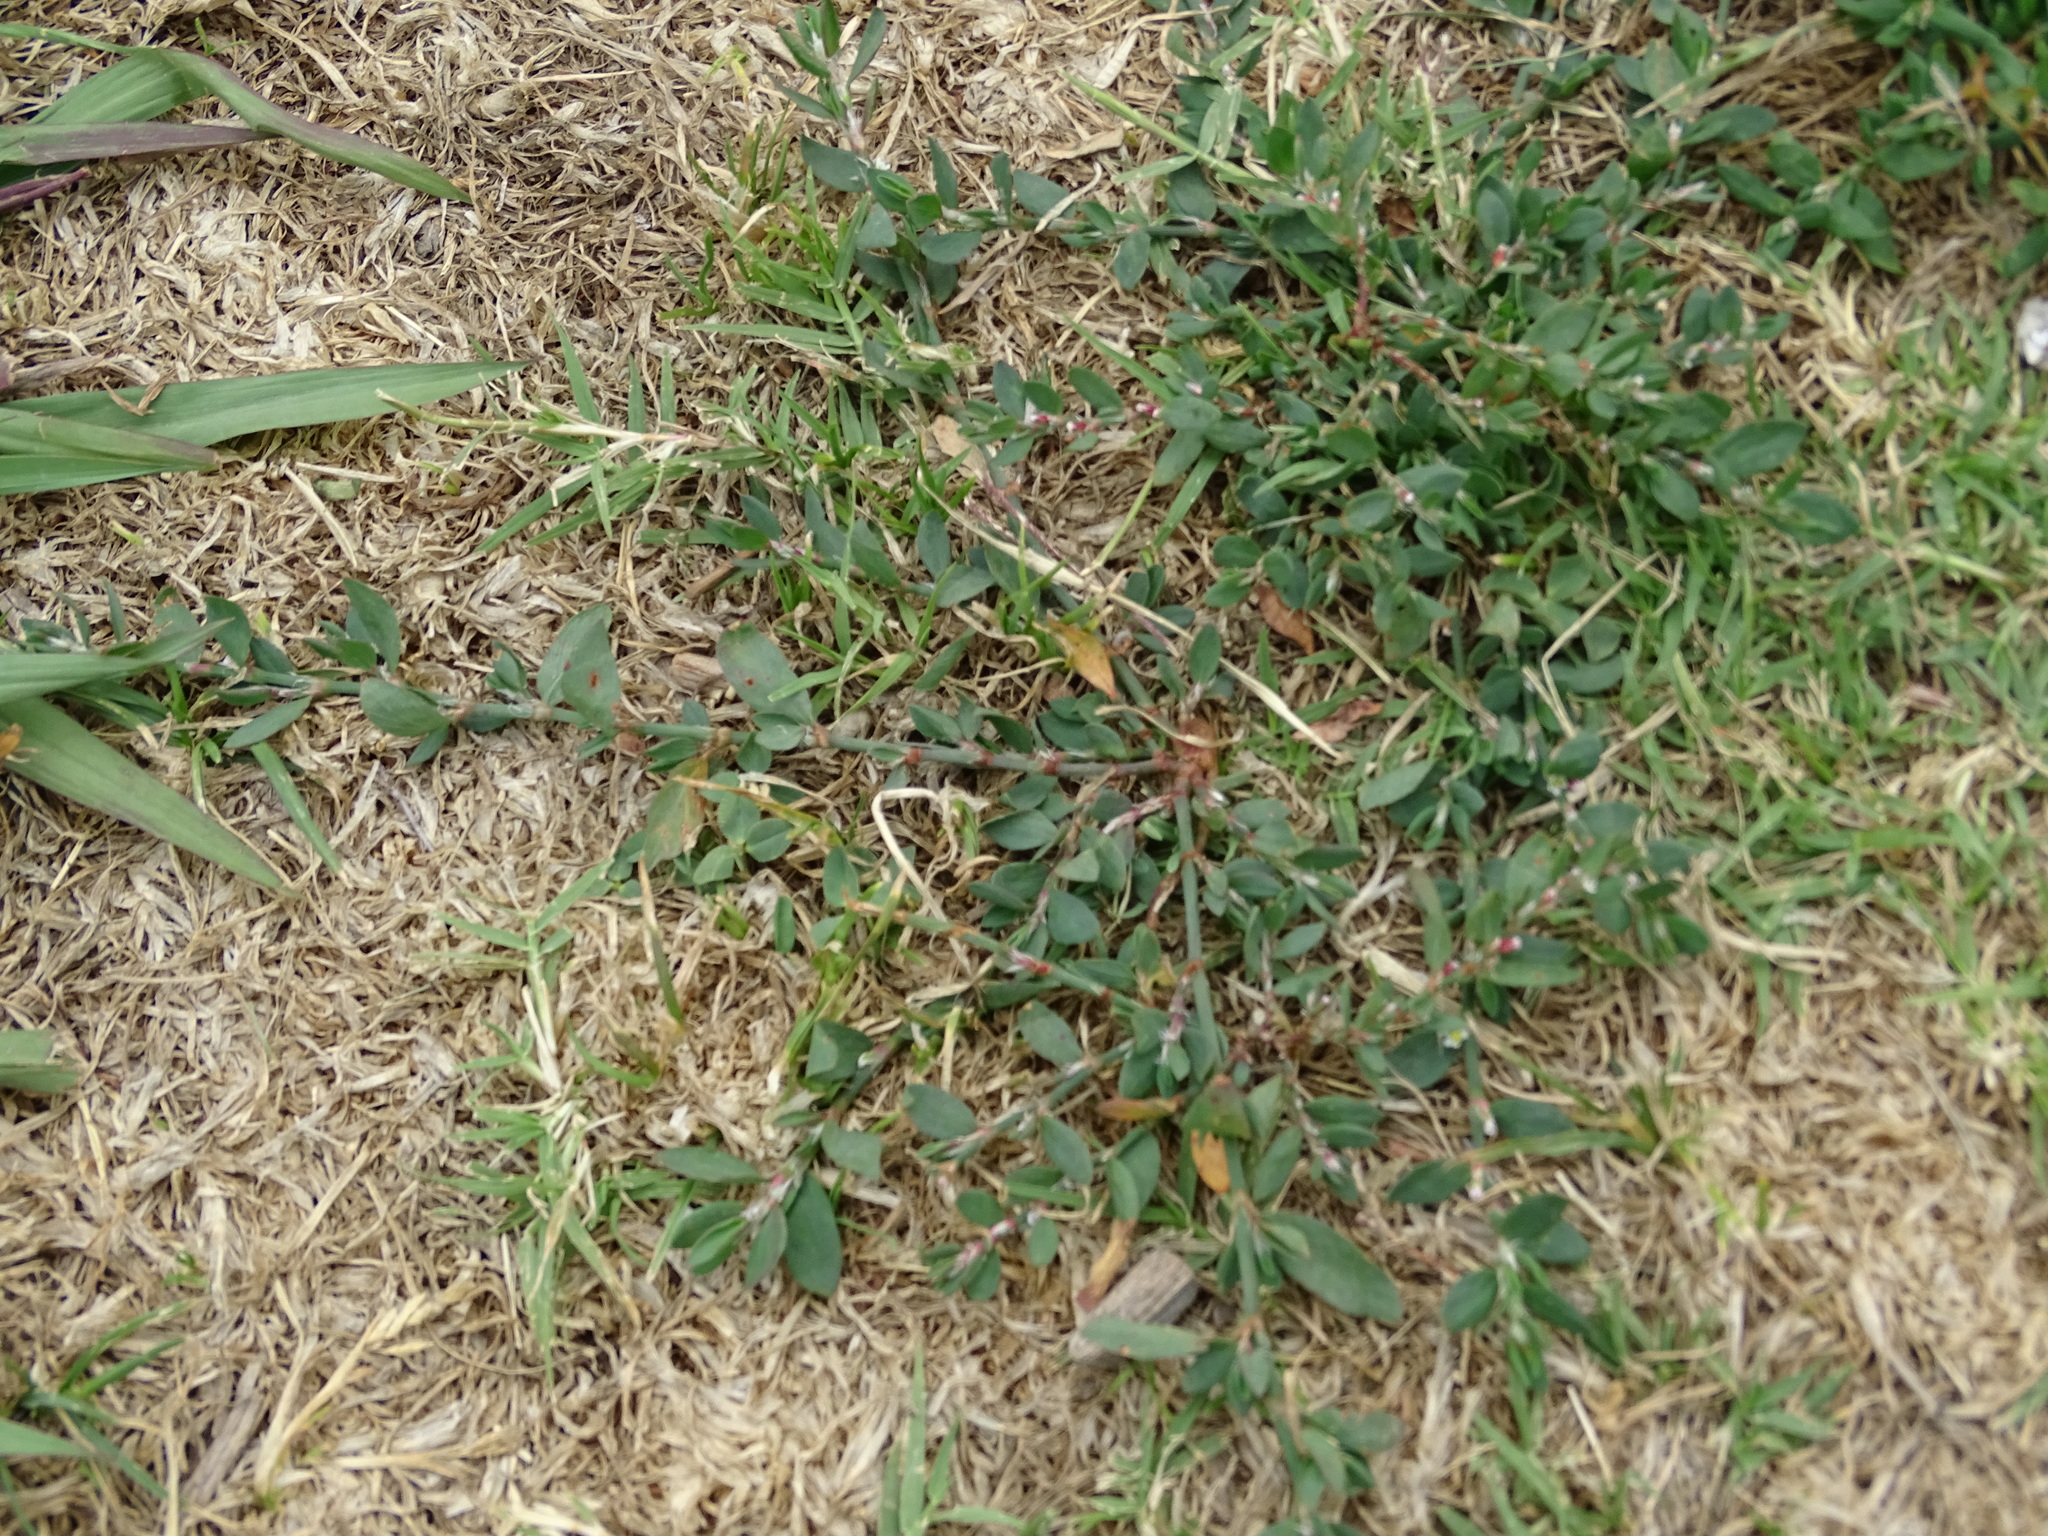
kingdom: Plantae
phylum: Tracheophyta
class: Magnoliopsida
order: Caryophyllales
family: Polygonaceae
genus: Polygonum
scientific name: Polygonum aviculare
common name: Prostrate knotweed
